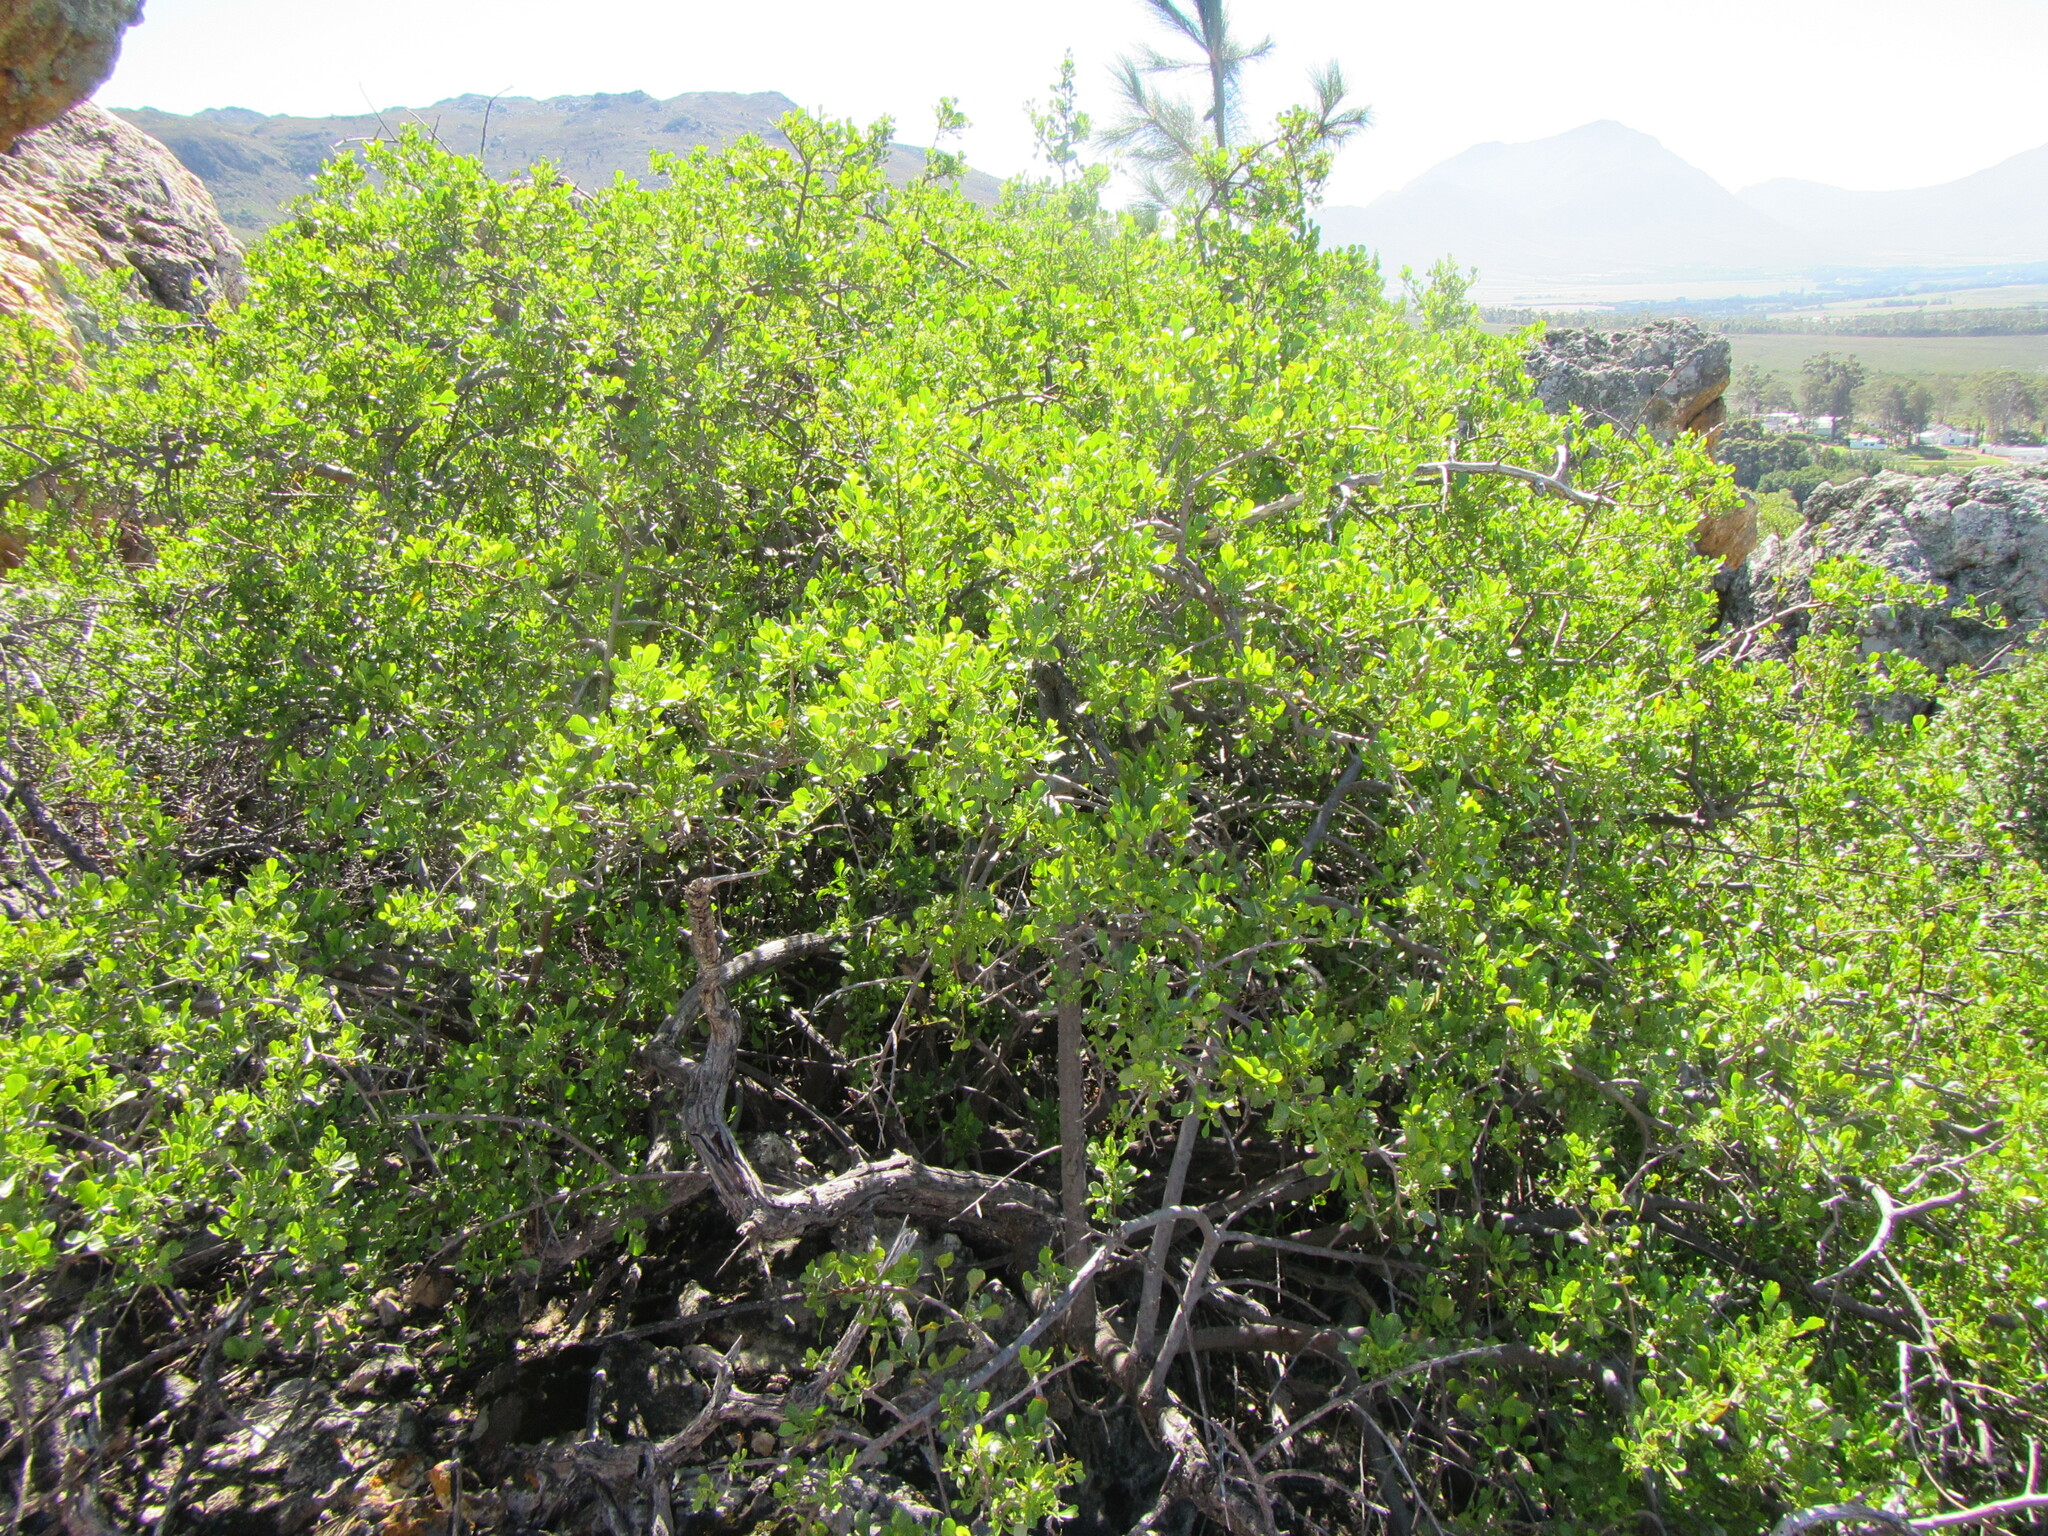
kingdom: Plantae
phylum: Tracheophyta
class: Magnoliopsida
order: Sapindales
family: Anacardiaceae
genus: Searsia
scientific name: Searsia undulata
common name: Namaqua kunibush
